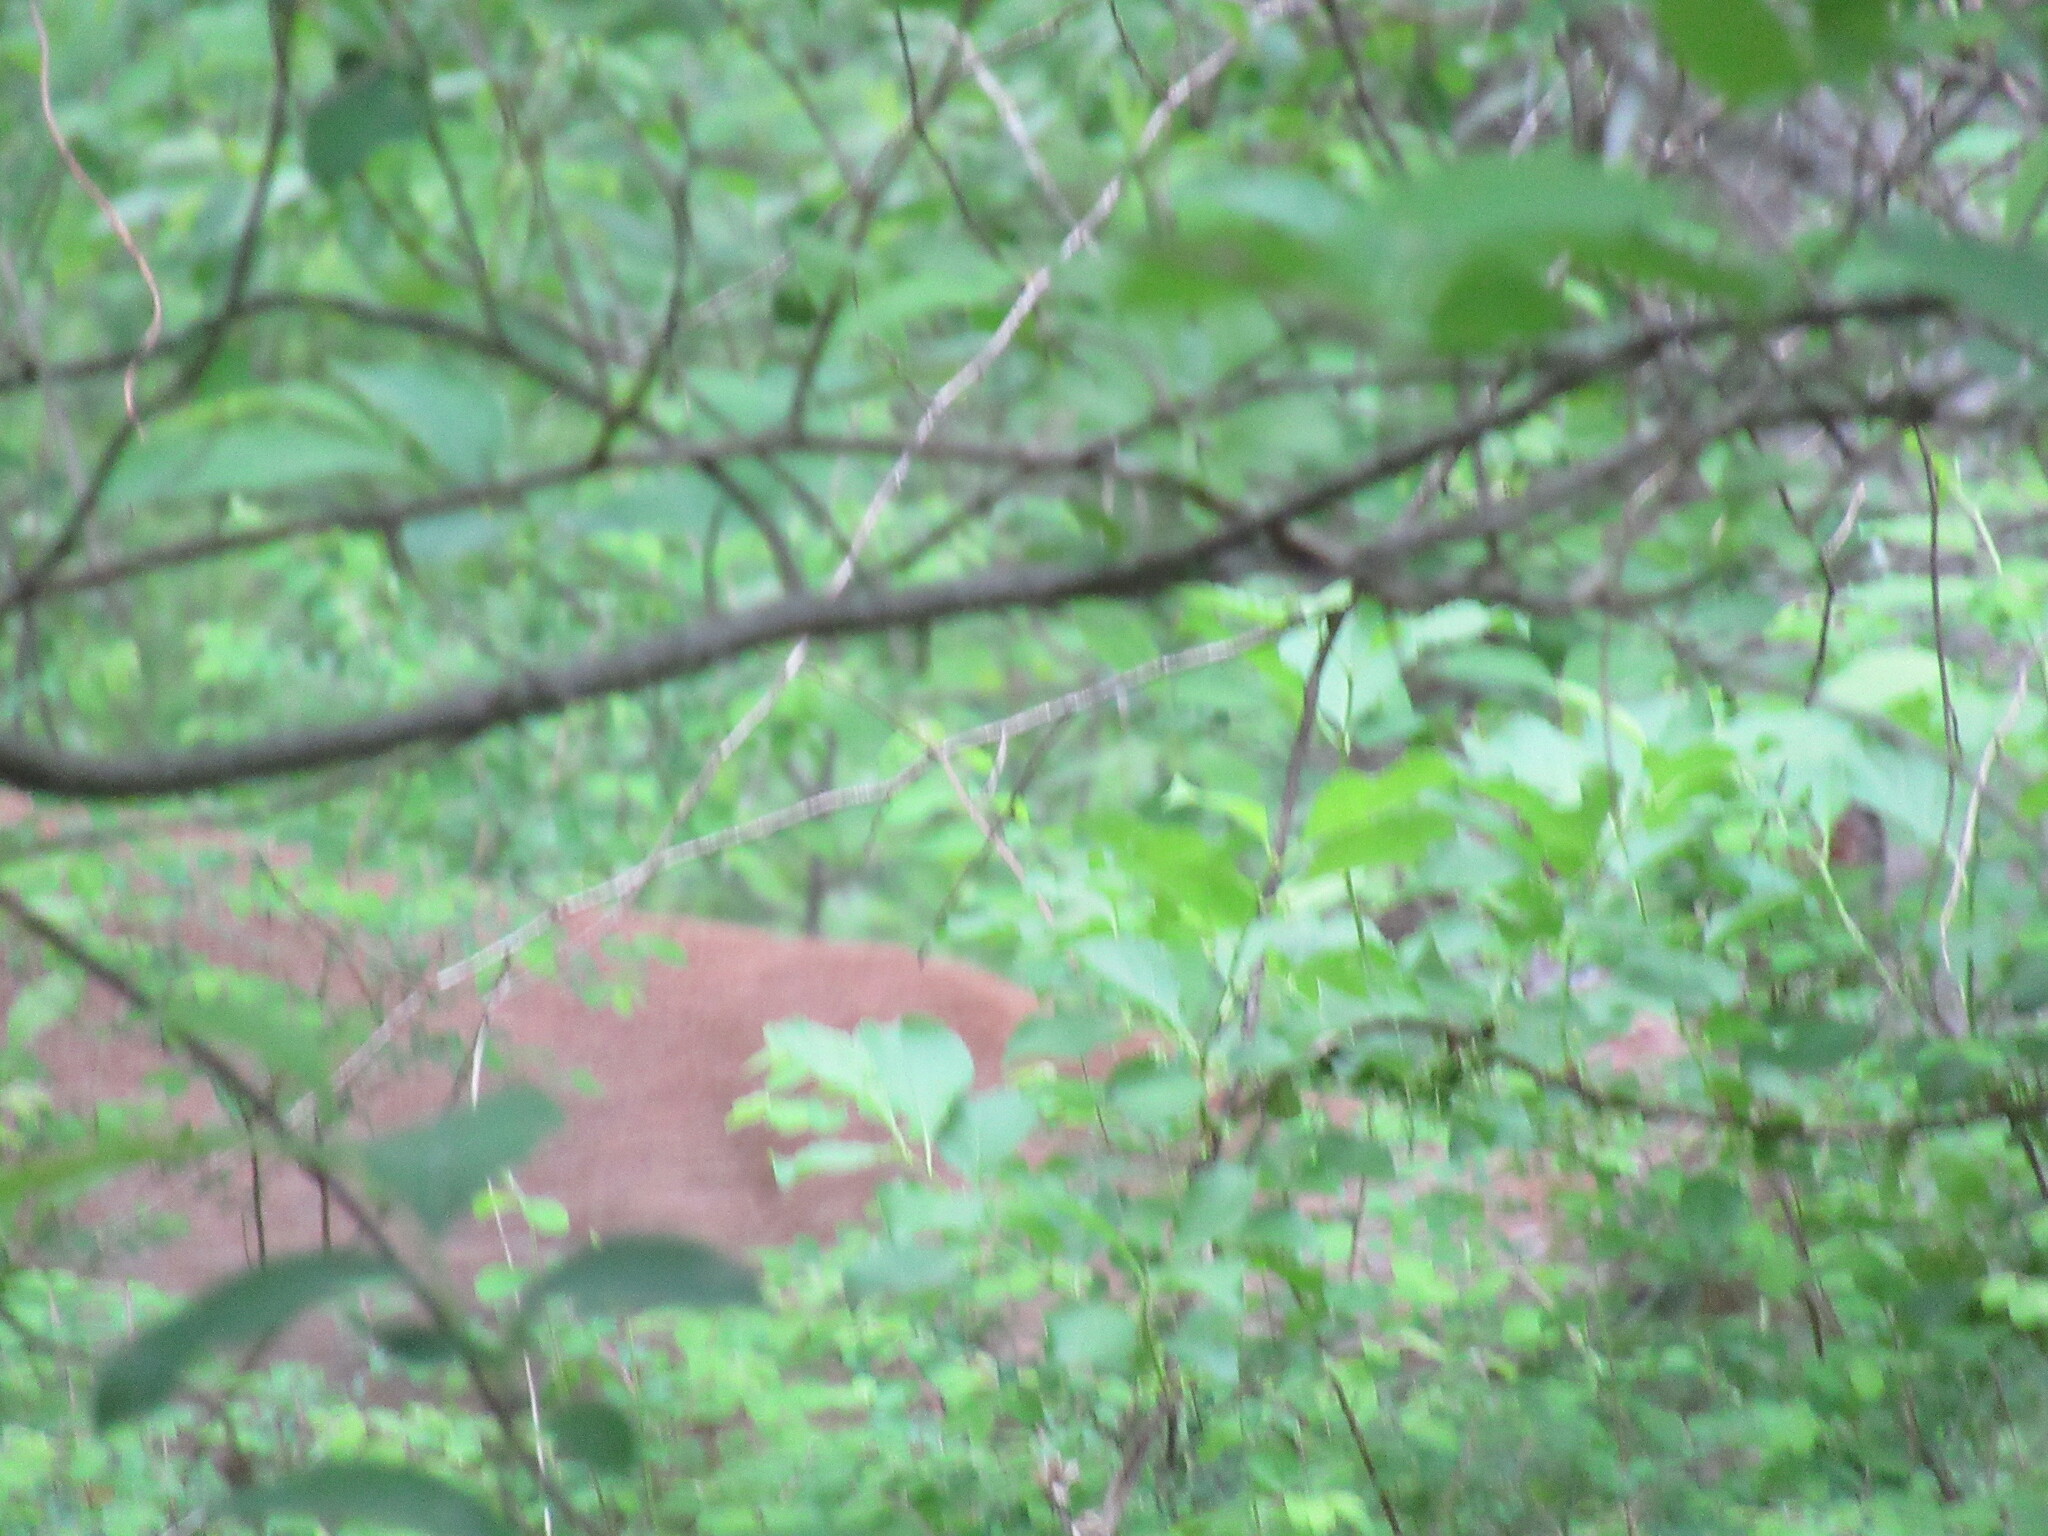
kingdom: Animalia
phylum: Chordata
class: Mammalia
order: Artiodactyla
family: Cervidae
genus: Odocoileus
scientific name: Odocoileus virginianus
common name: White-tailed deer
